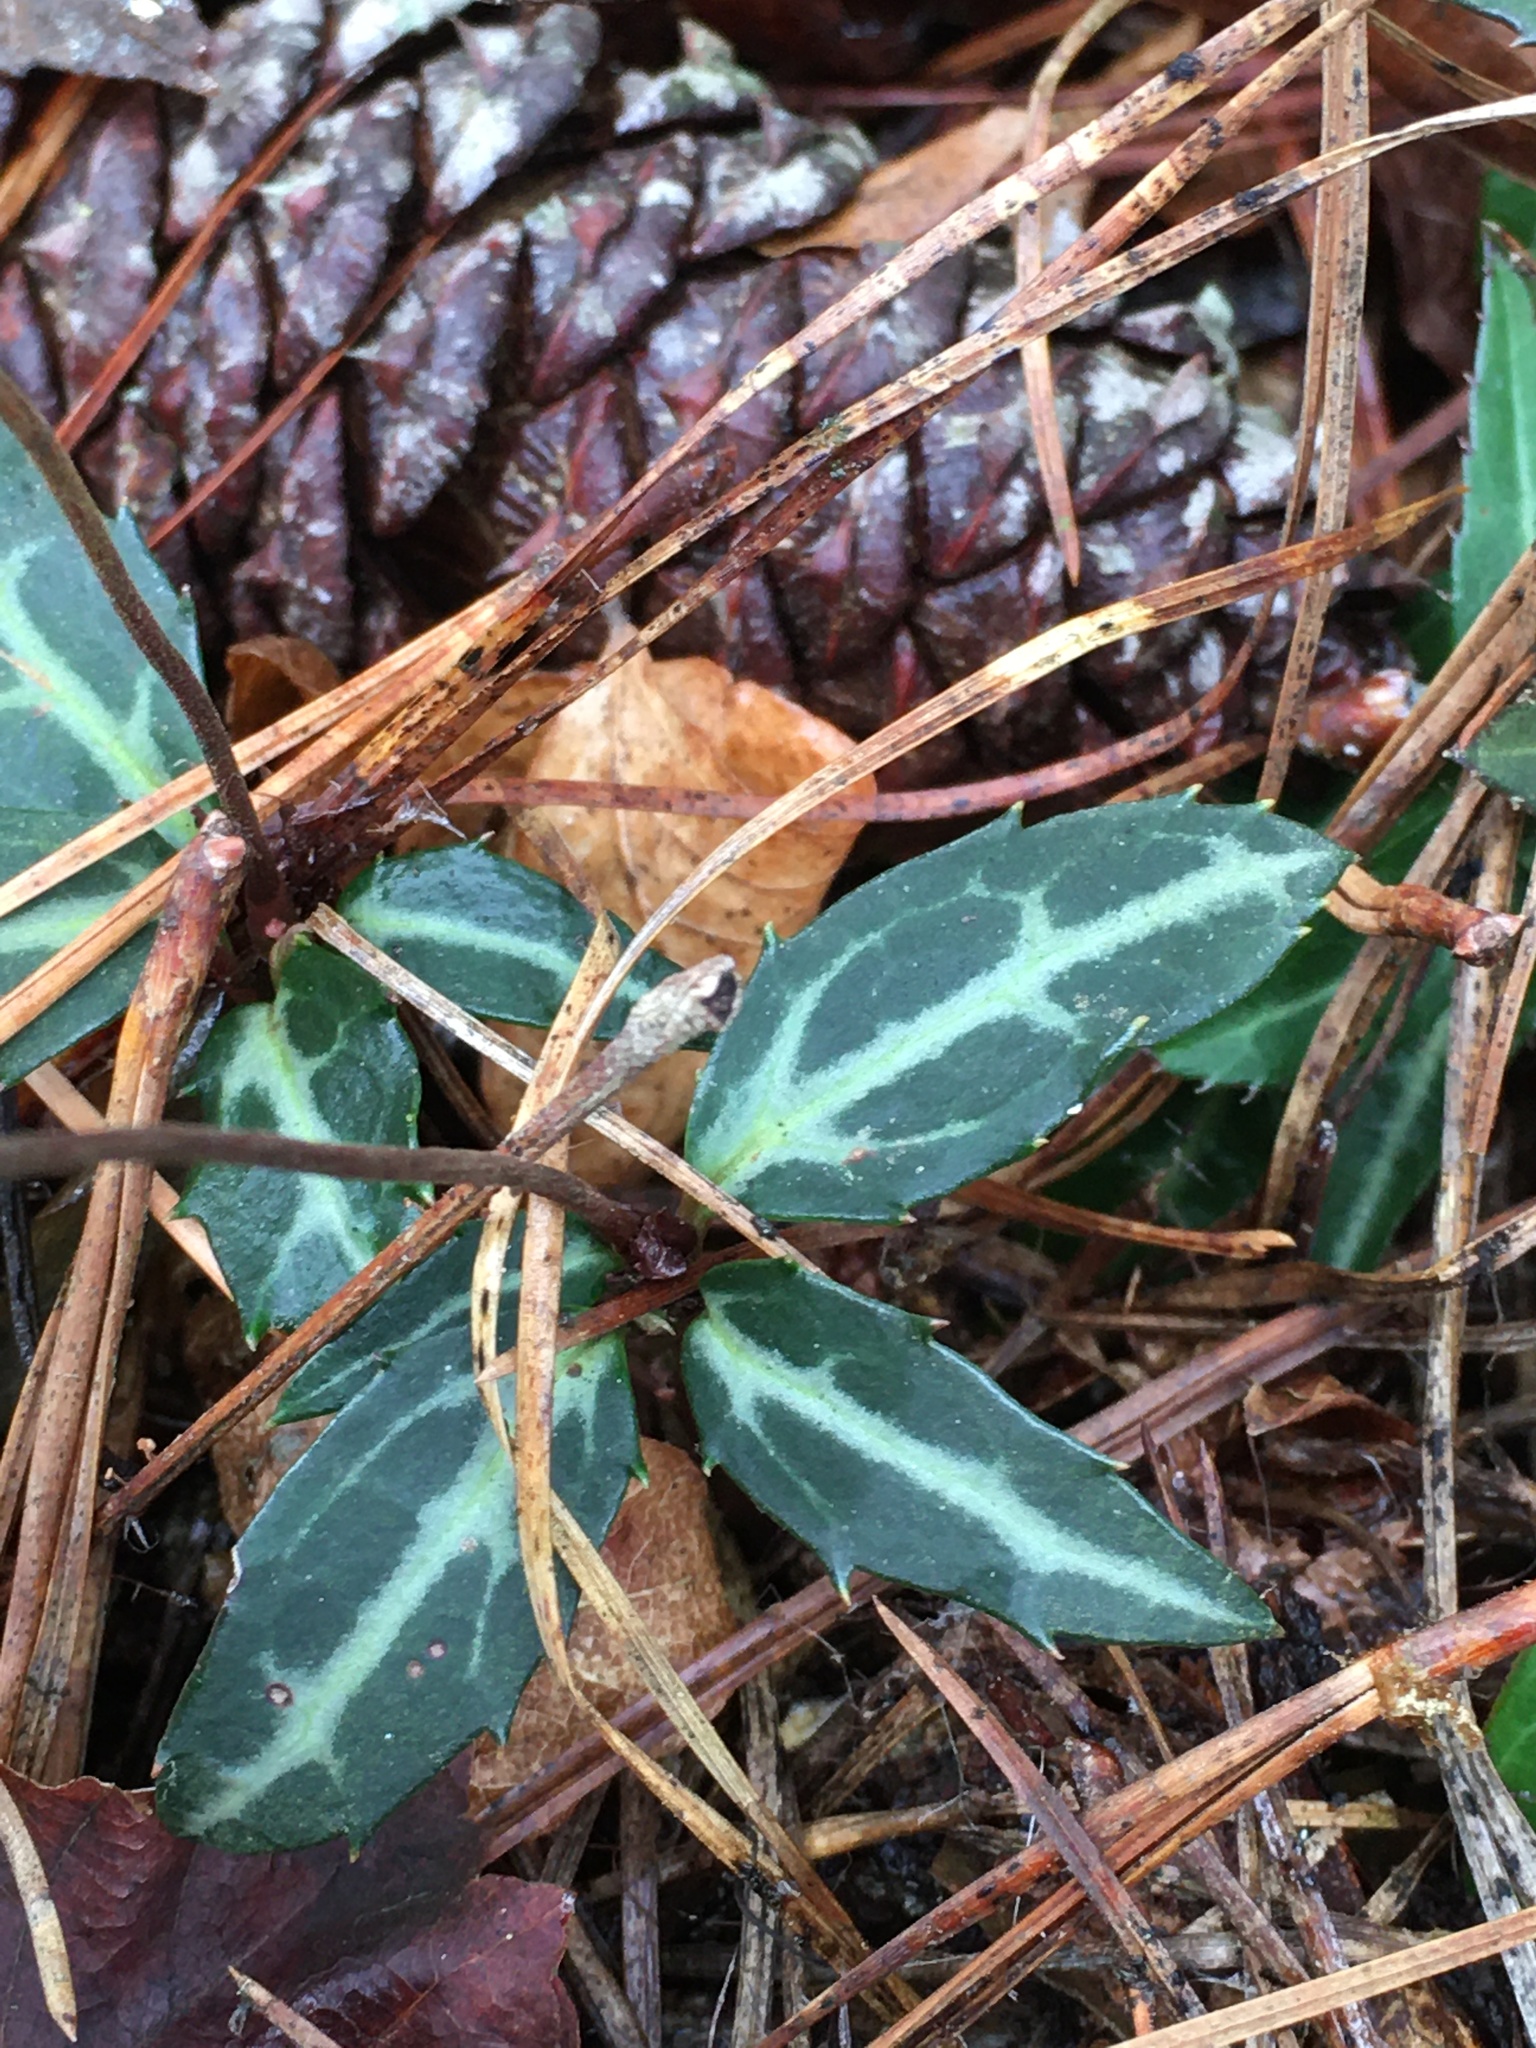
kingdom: Plantae
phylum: Tracheophyta
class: Magnoliopsida
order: Ericales
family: Ericaceae
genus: Chimaphila
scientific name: Chimaphila maculata
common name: Spotted pipsissewa
